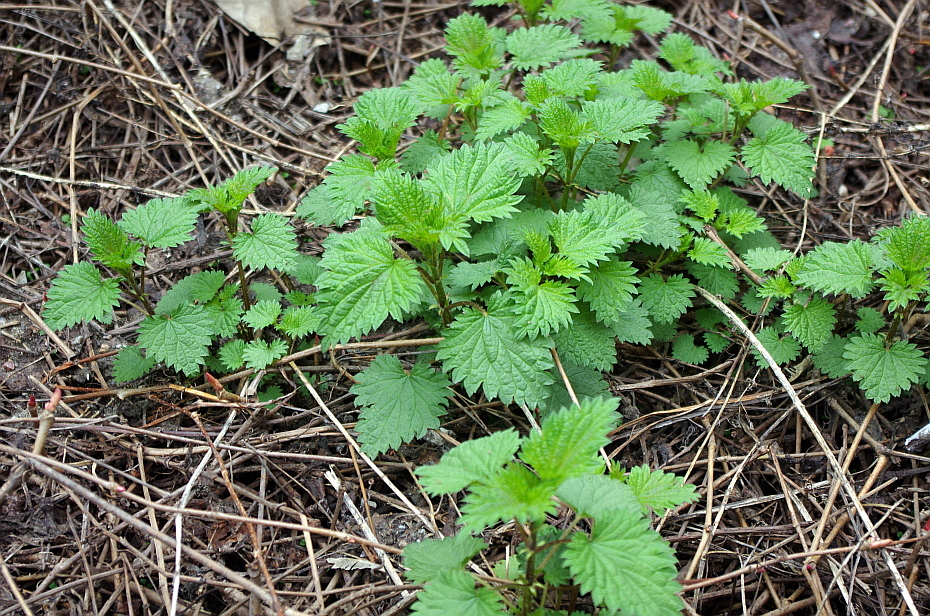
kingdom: Plantae
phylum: Tracheophyta
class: Magnoliopsida
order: Rosales
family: Urticaceae
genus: Urtica
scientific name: Urtica dioica
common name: Common nettle
